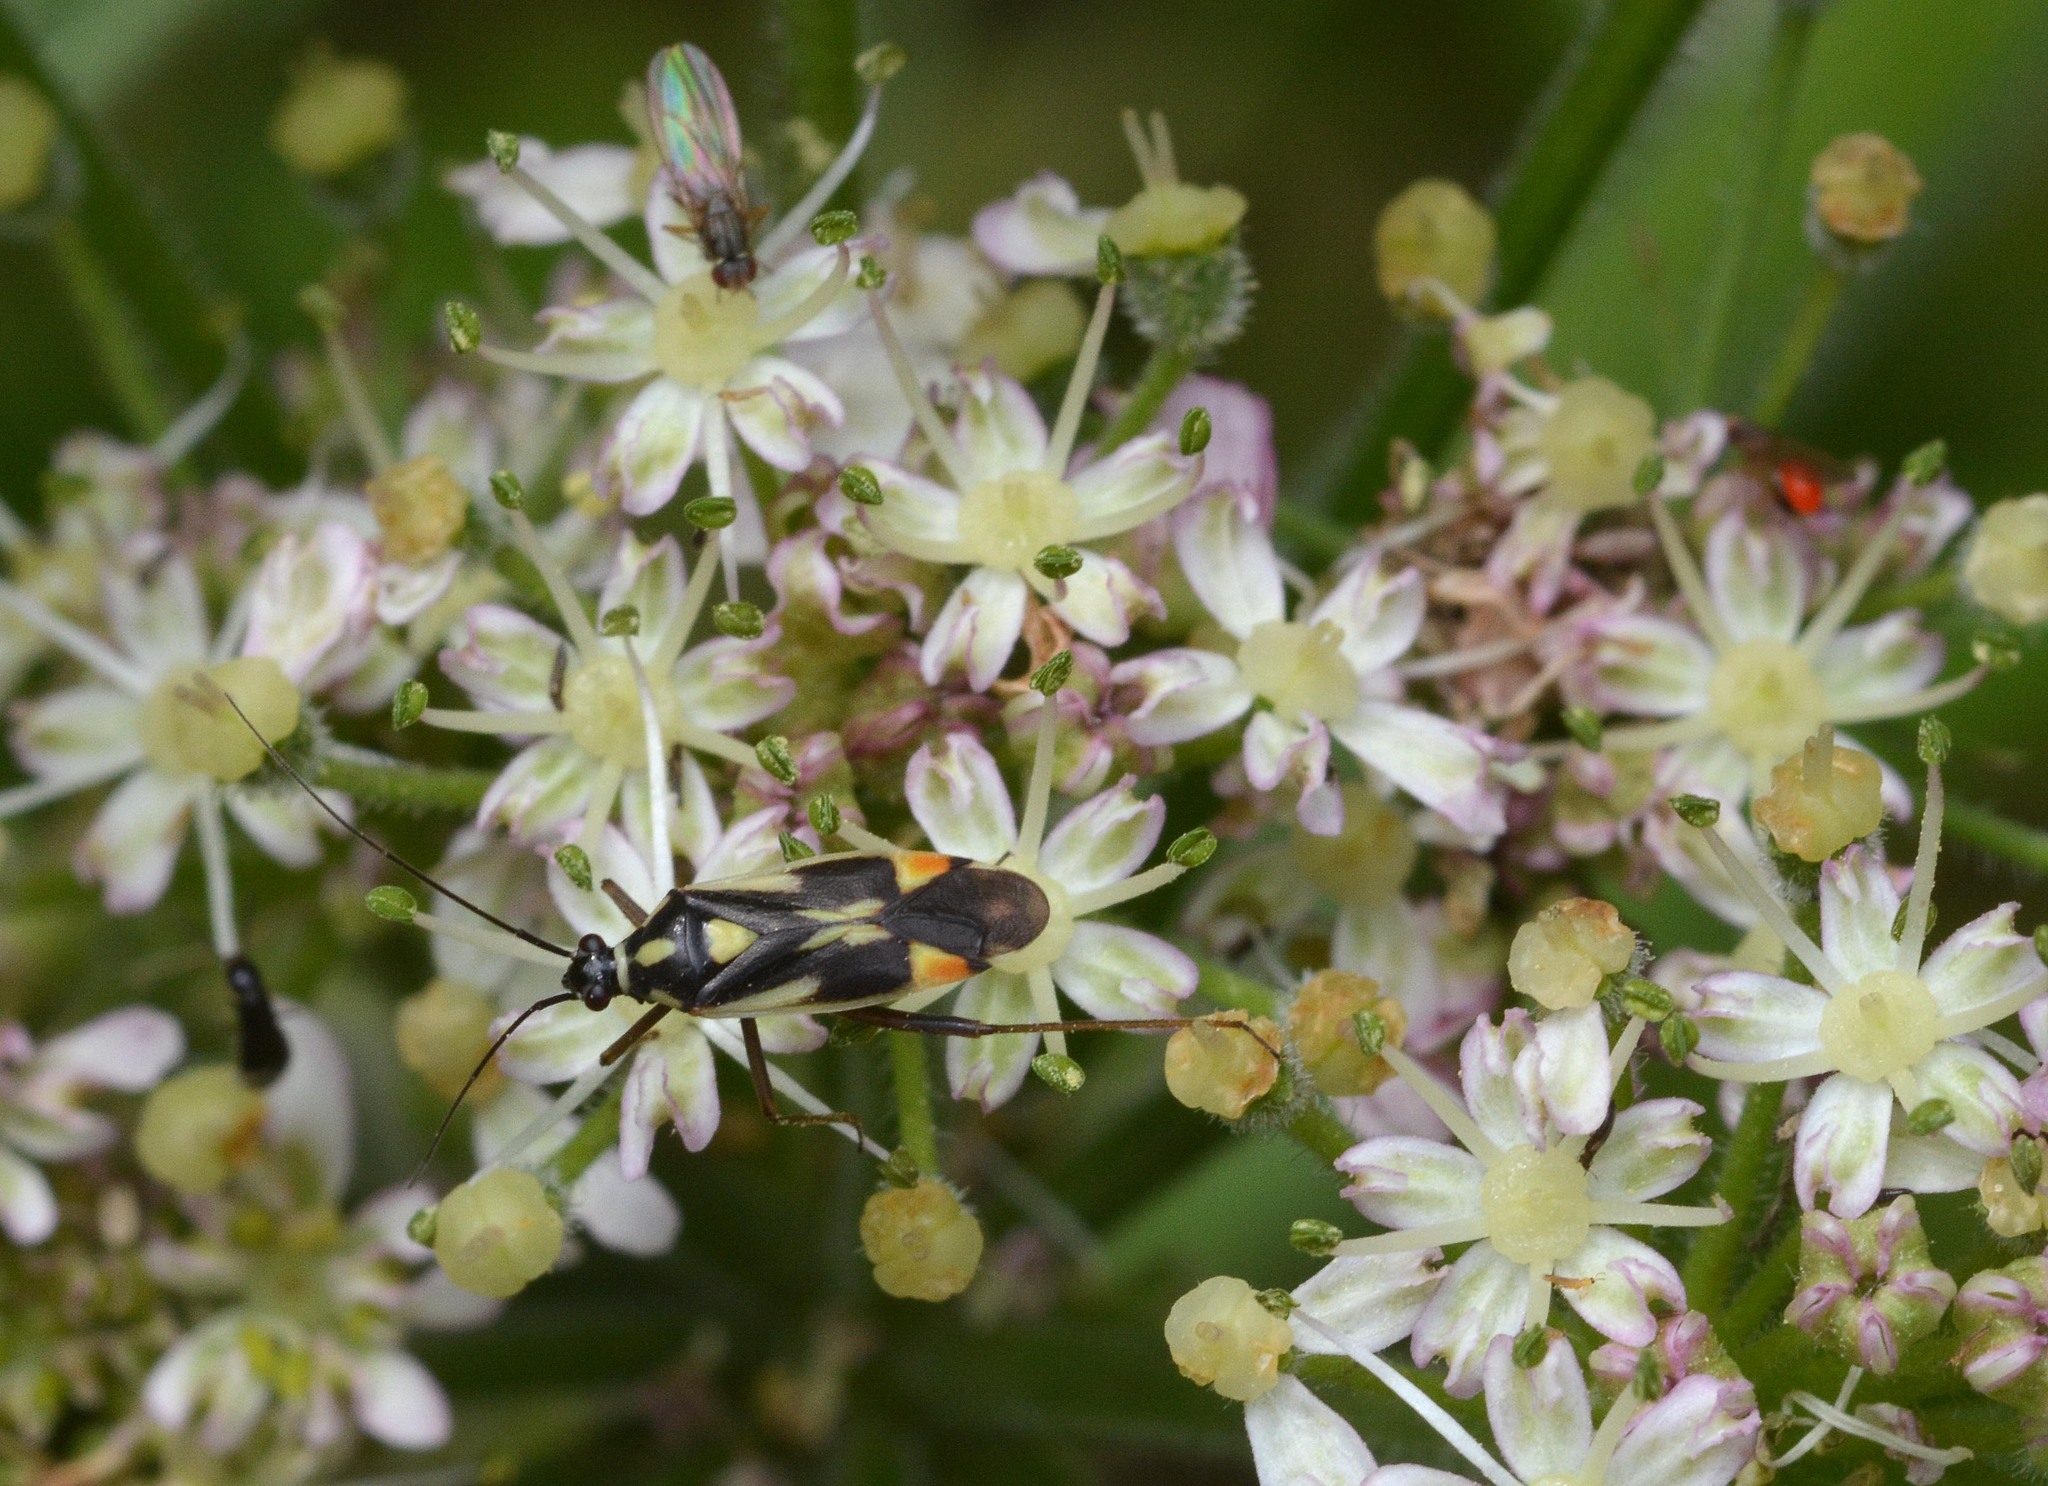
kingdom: Animalia
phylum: Arthropoda
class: Insecta
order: Hemiptera
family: Miridae
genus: Grypocoris
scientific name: Grypocoris stysi
